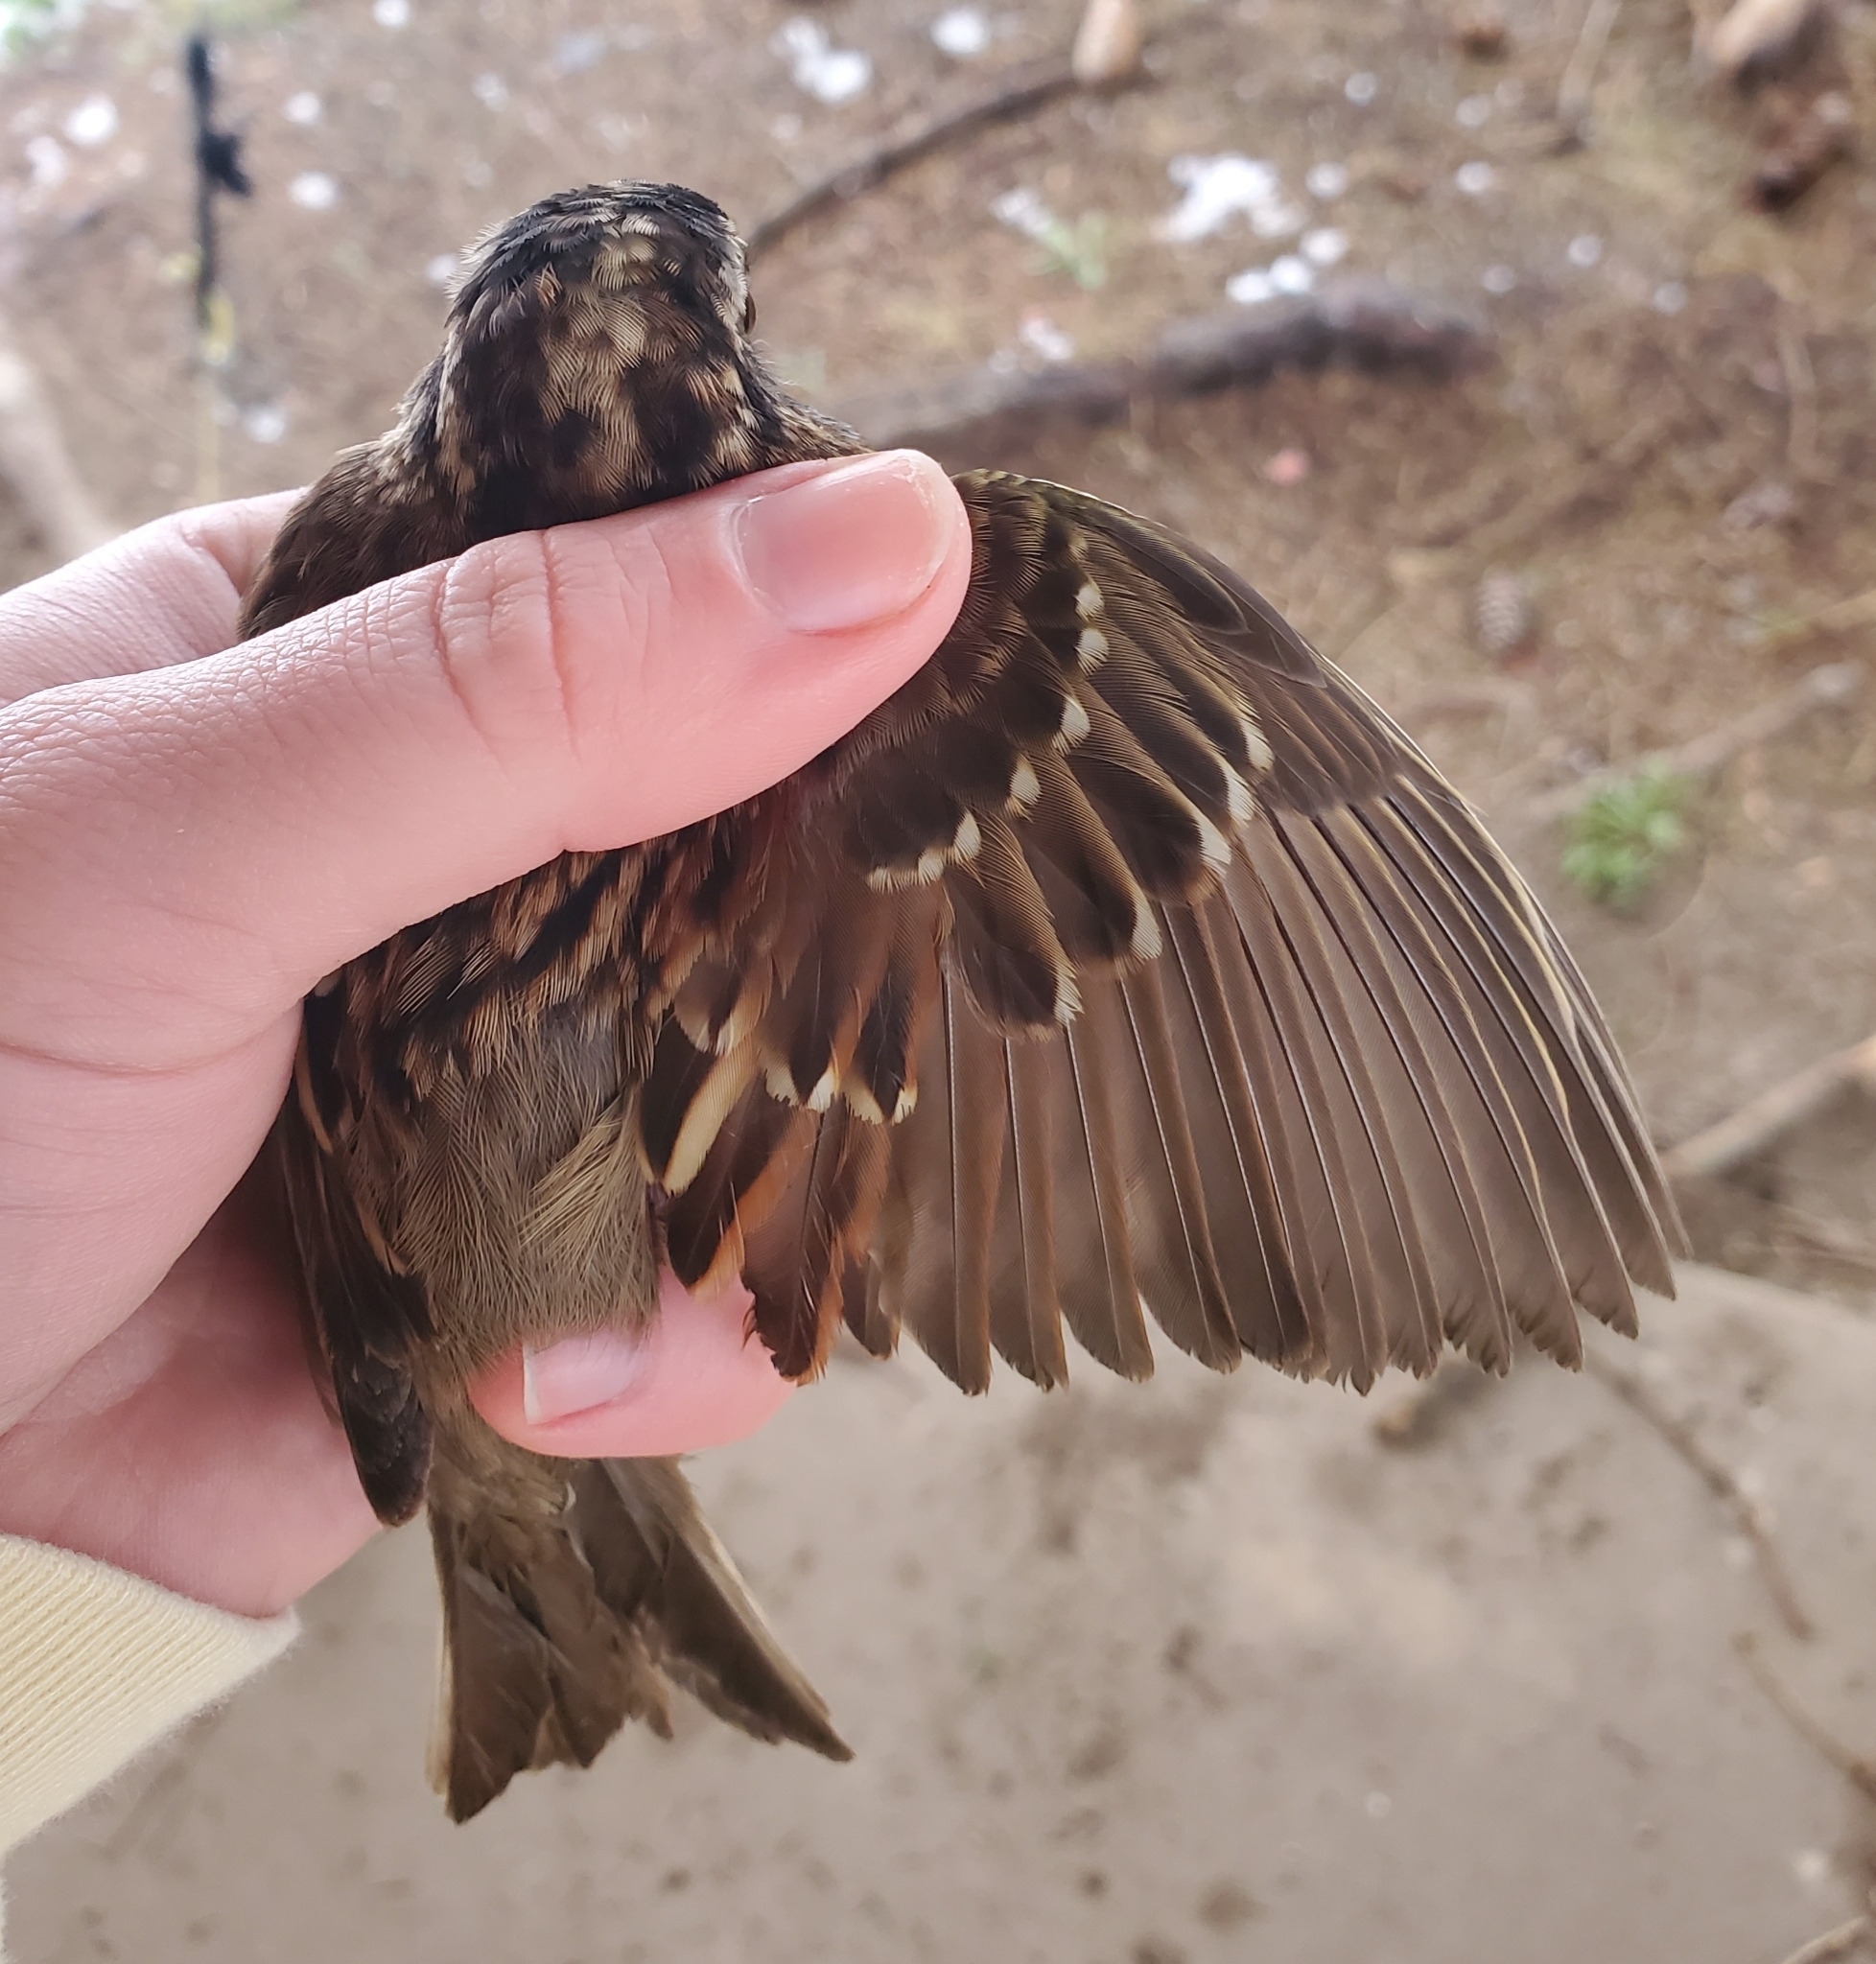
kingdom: Animalia
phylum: Chordata
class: Aves
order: Passeriformes
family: Passerellidae
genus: Zonotrichia
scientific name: Zonotrichia albicollis
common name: White-throated sparrow
